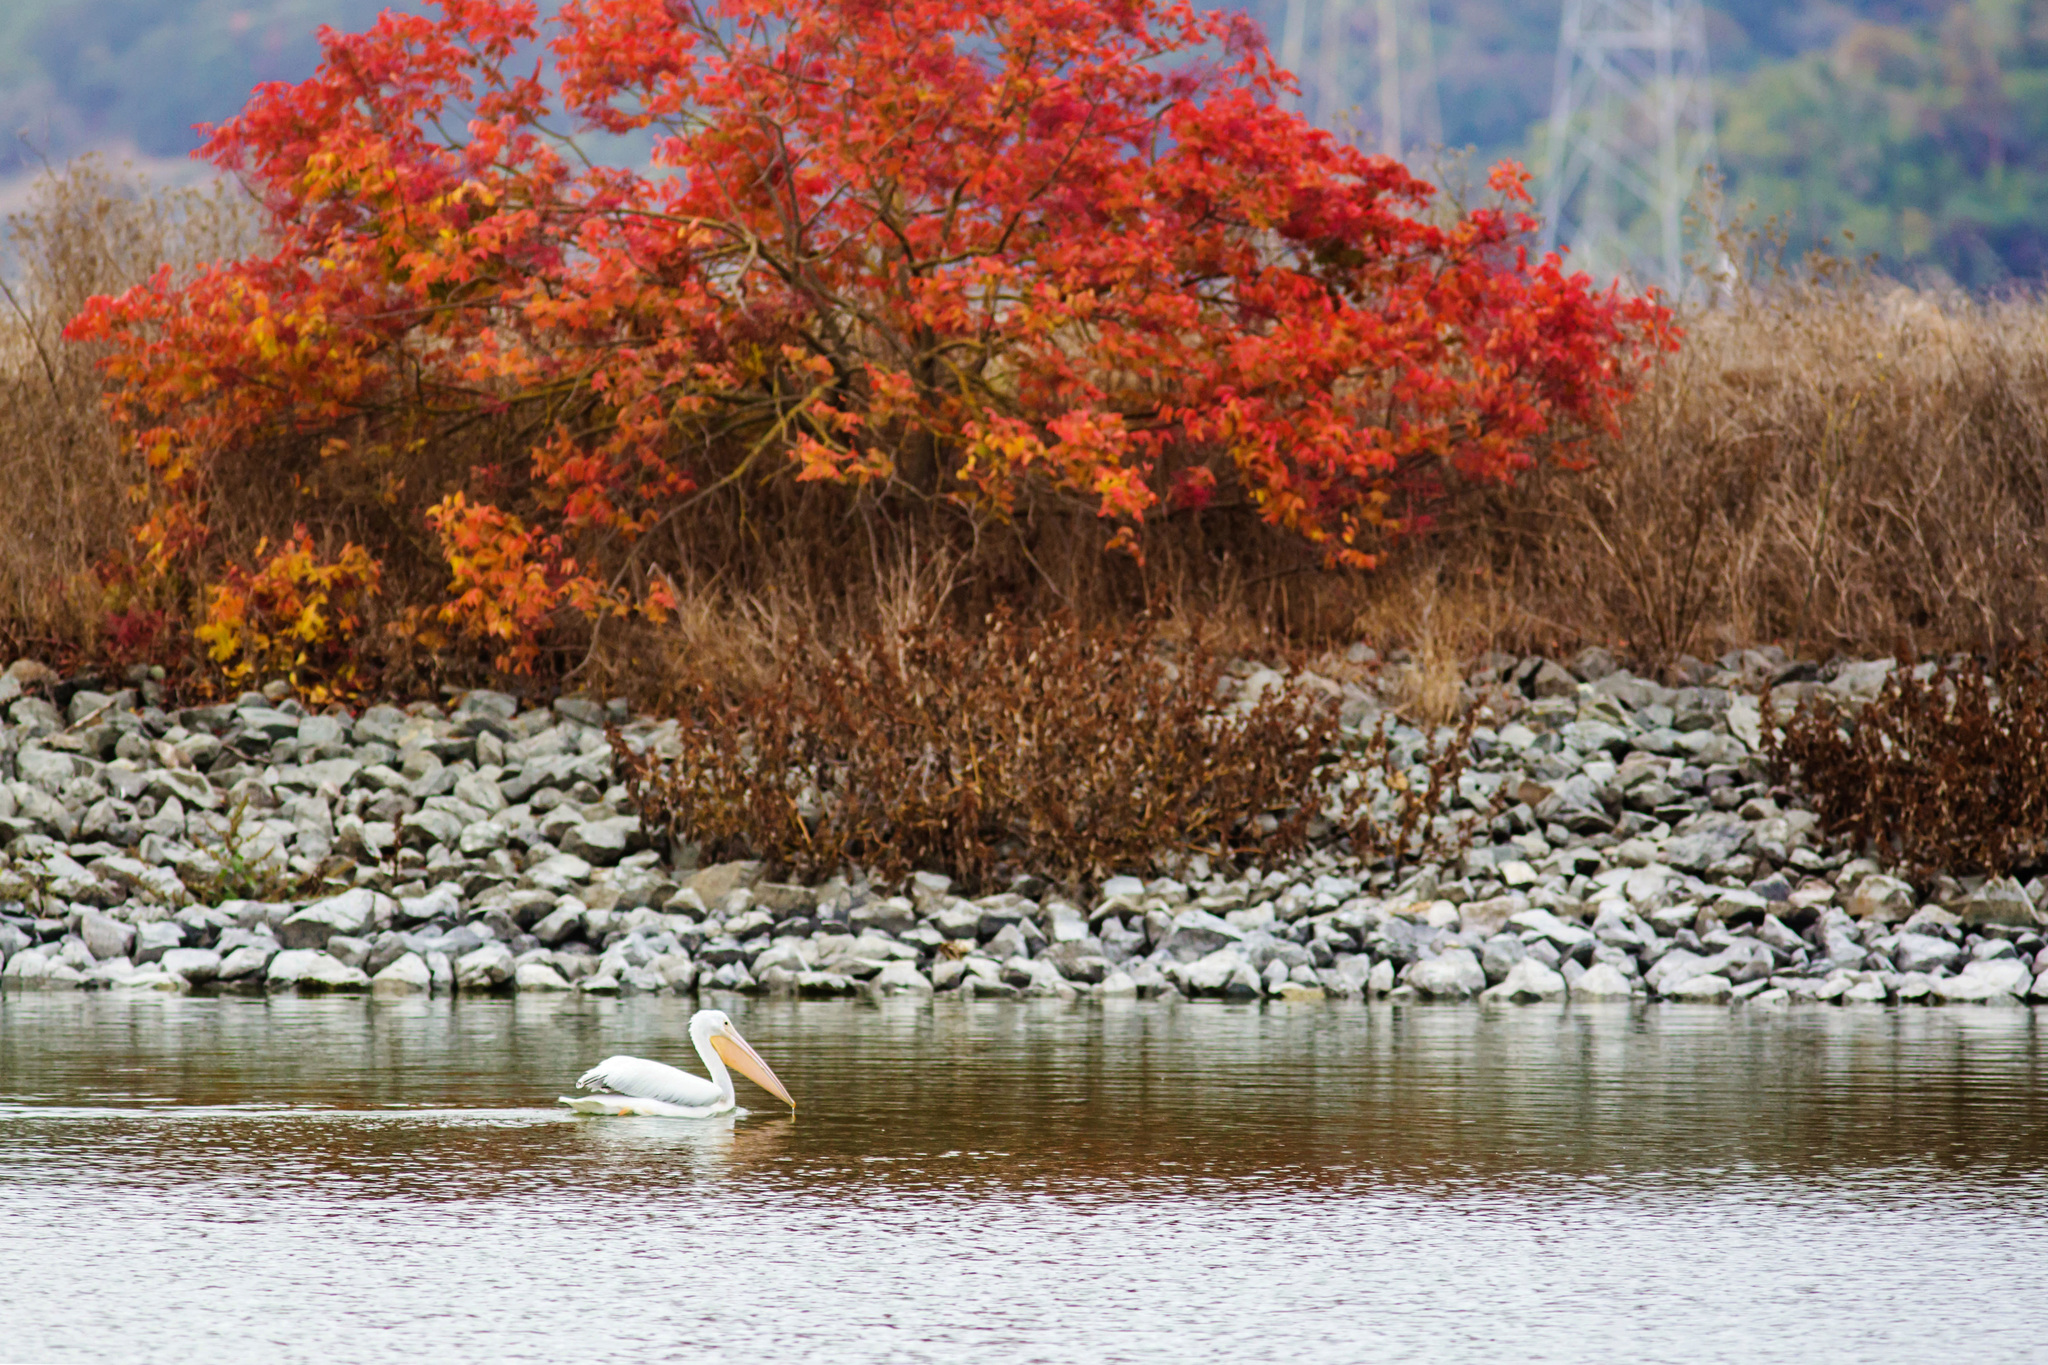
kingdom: Animalia
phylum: Chordata
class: Aves
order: Pelecaniformes
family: Pelecanidae
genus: Pelecanus
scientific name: Pelecanus erythrorhynchos
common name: American white pelican
